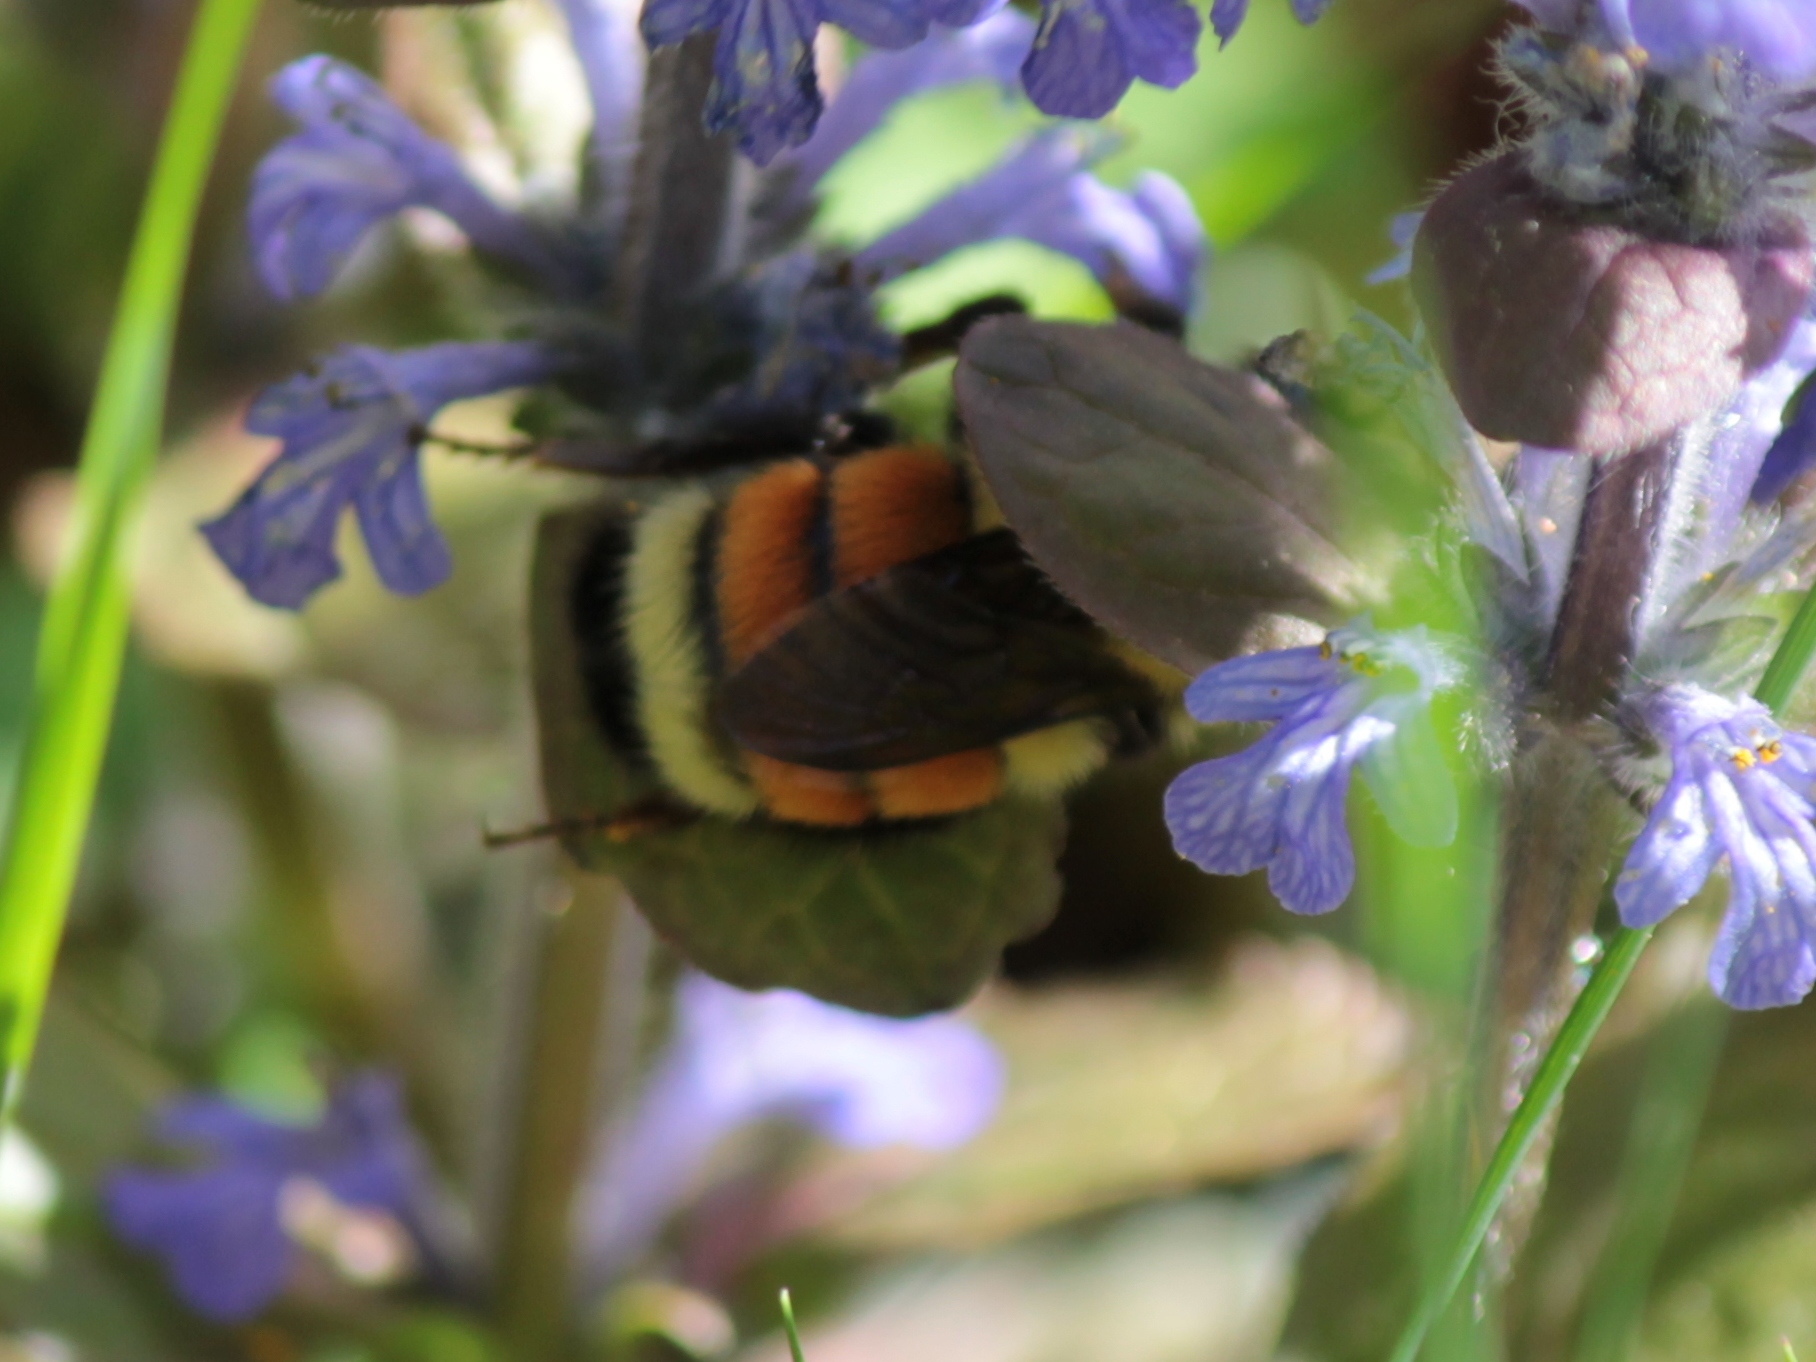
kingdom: Animalia
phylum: Arthropoda
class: Insecta
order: Hymenoptera
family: Apidae
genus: Bombus
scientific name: Bombus ternarius
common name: Tri-colored bumble bee
